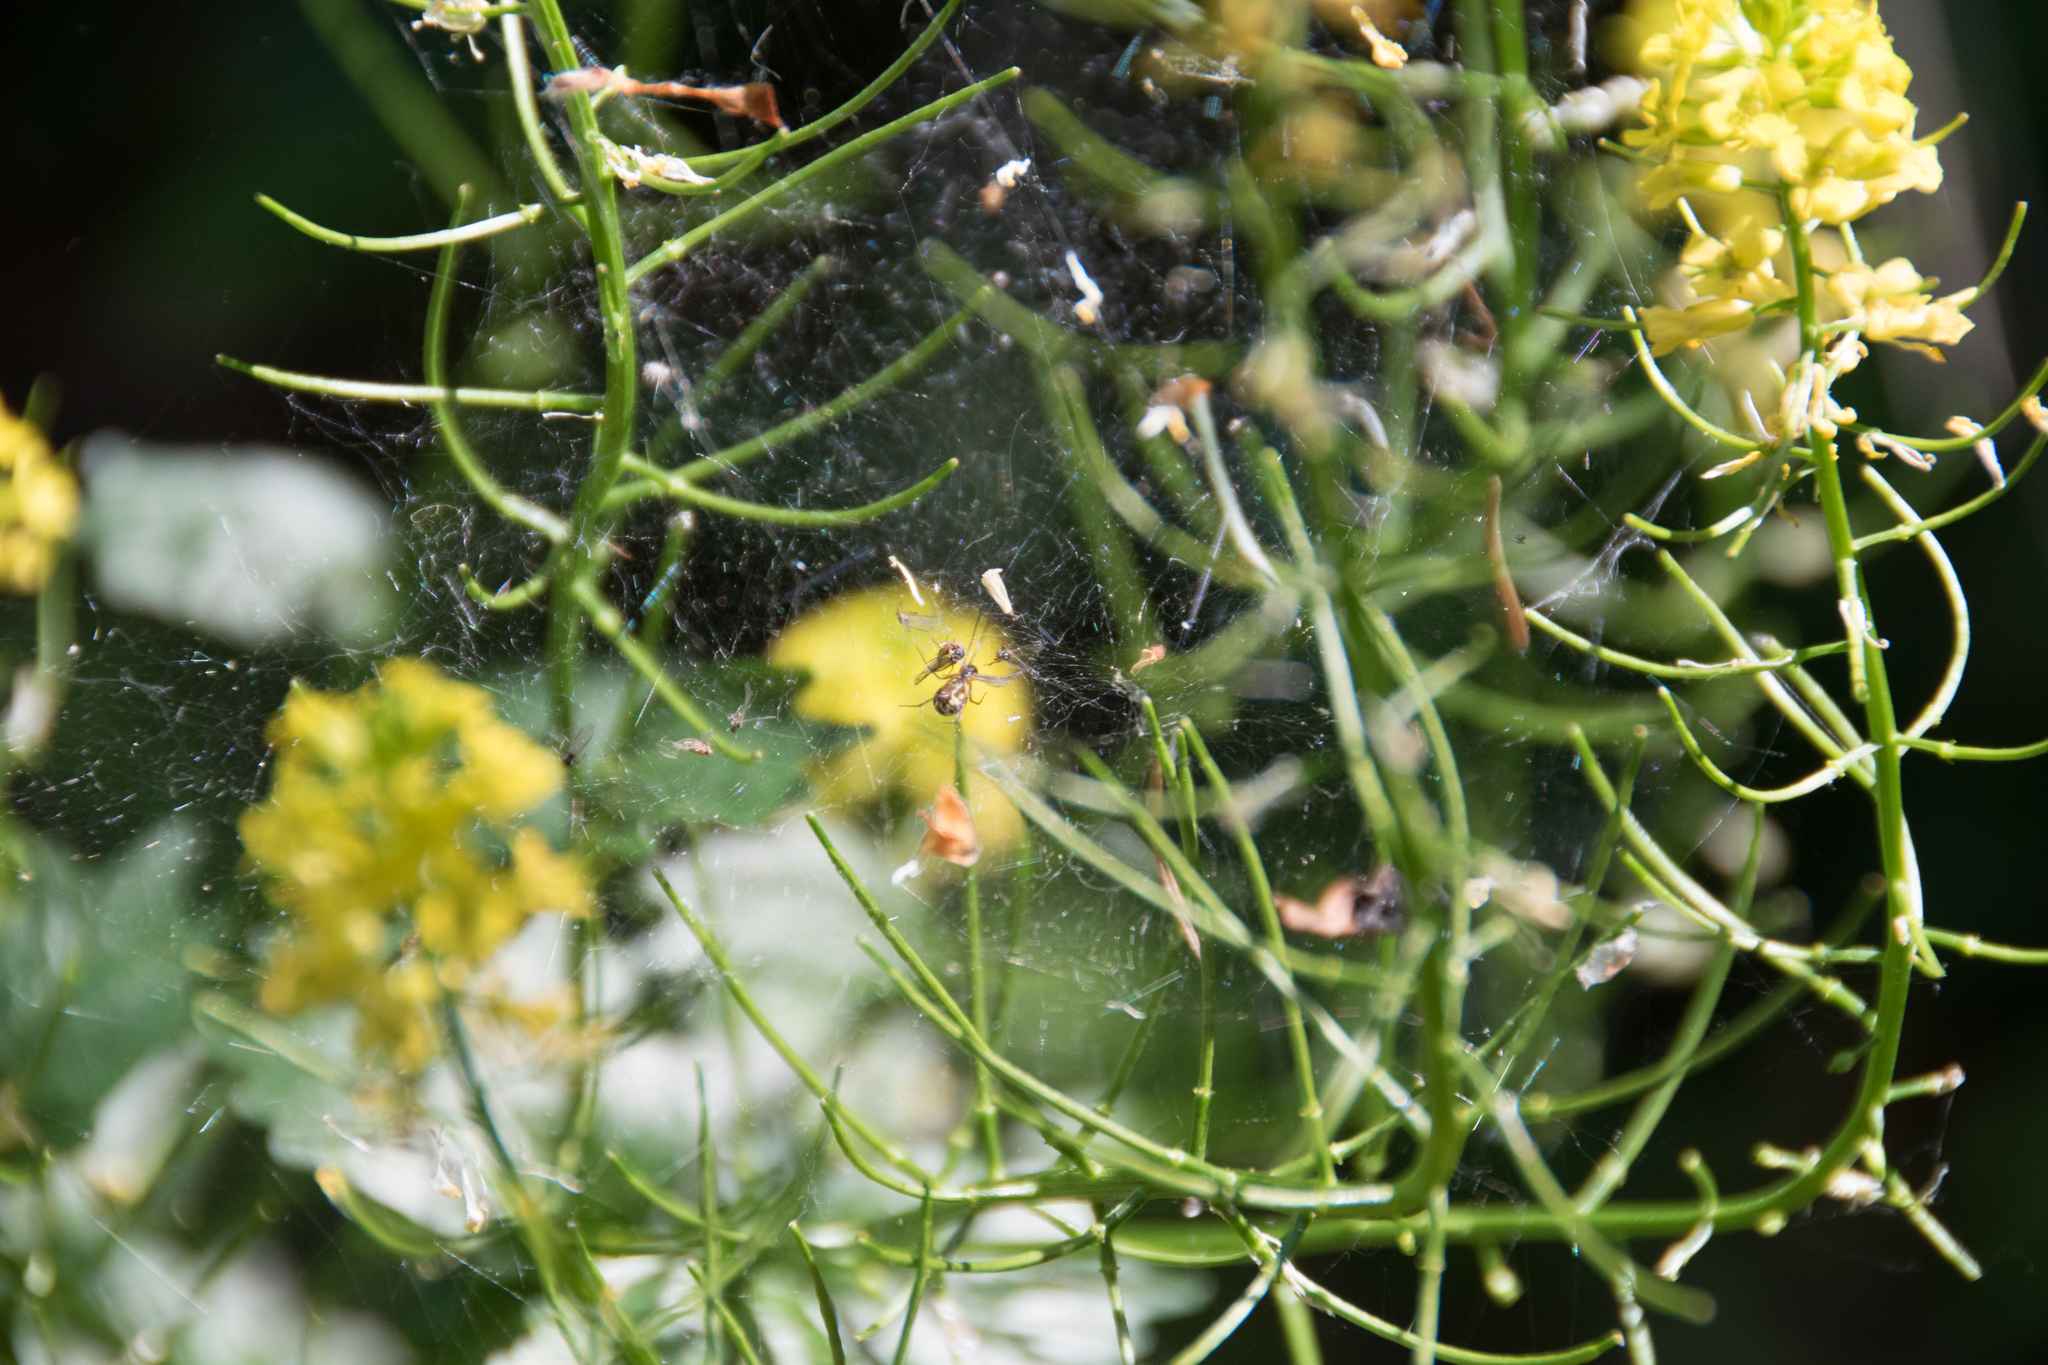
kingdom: Animalia
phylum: Arthropoda
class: Arachnida
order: Araneae
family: Linyphiidae
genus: Neriene
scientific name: Neriene peltata
